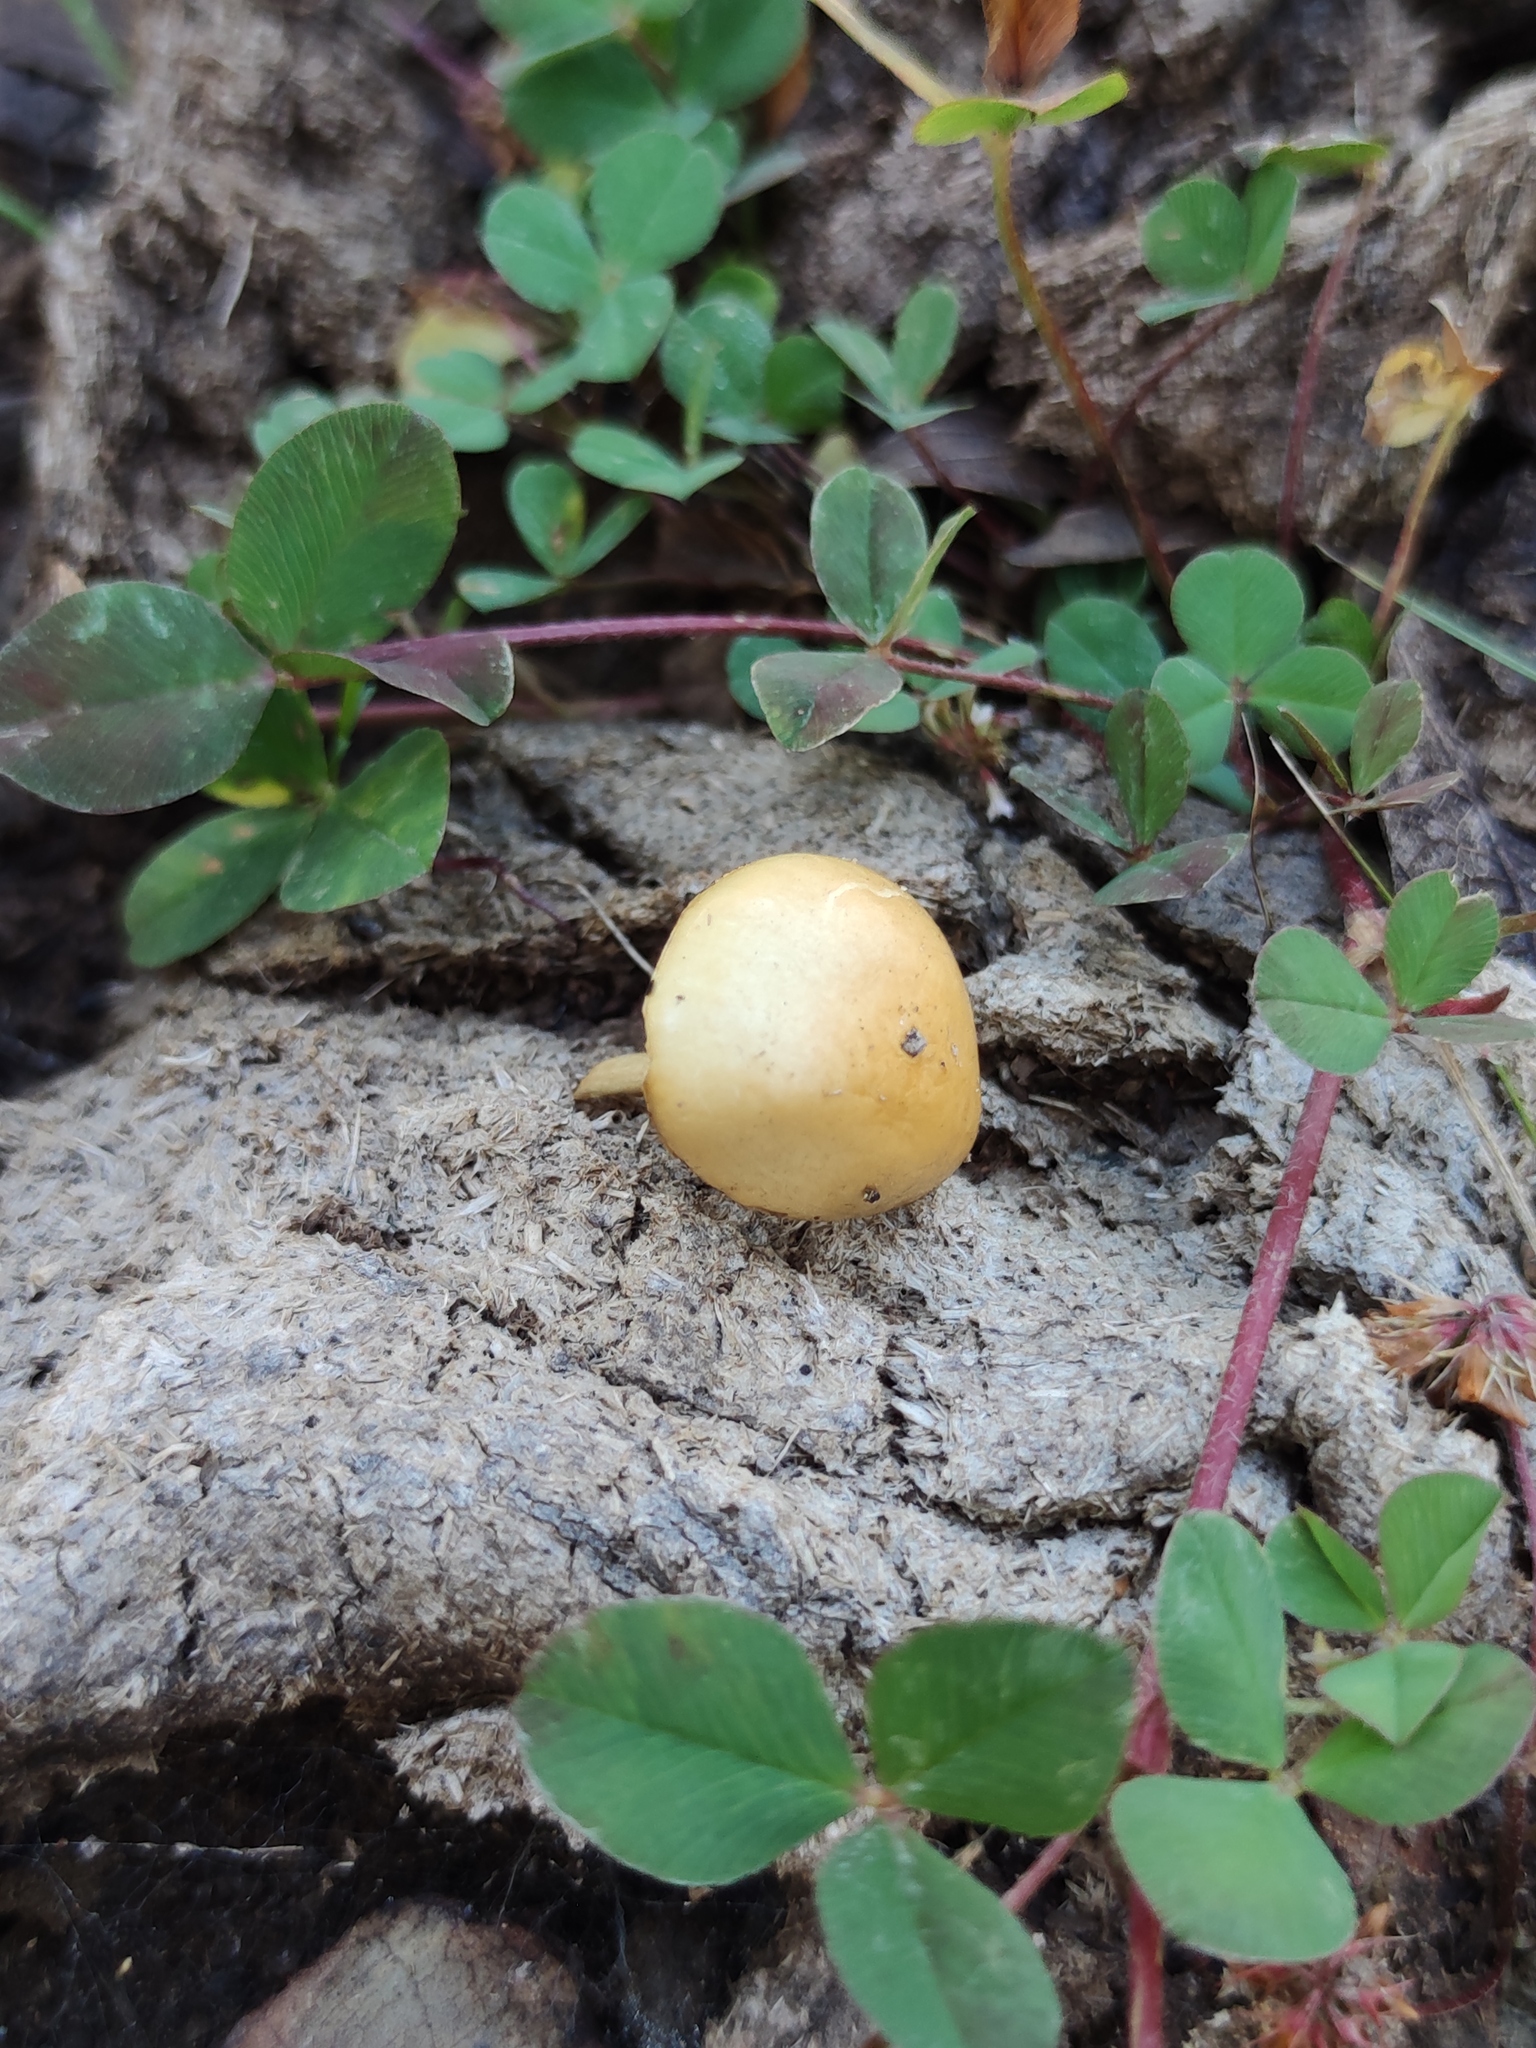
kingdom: Fungi
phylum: Basidiomycota
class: Agaricomycetes
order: Agaricales
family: Strophariaceae
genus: Protostropharia
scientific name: Protostropharia semiglobata
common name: Dung roundhead
